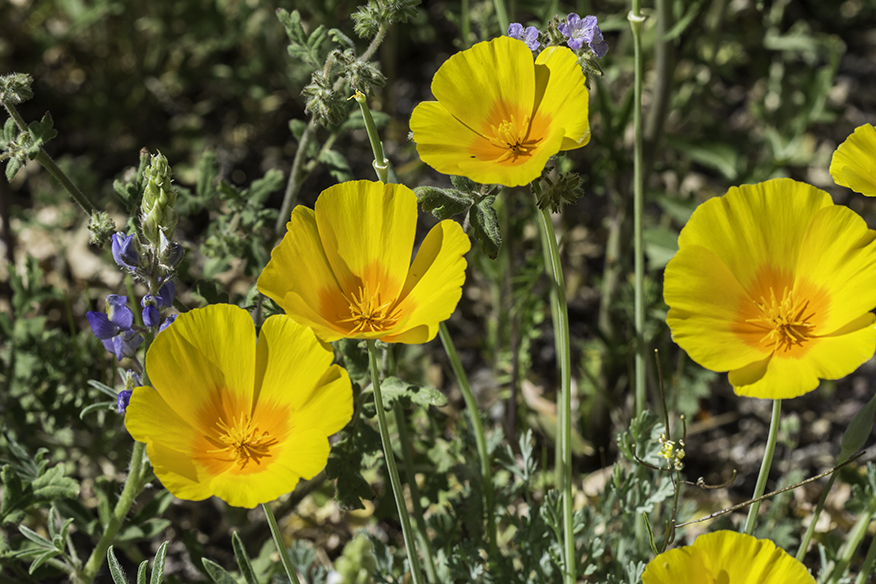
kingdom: Plantae
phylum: Tracheophyta
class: Magnoliopsida
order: Ranunculales
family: Papaveraceae
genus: Eschscholzia
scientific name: Eschscholzia californica
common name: California poppy
